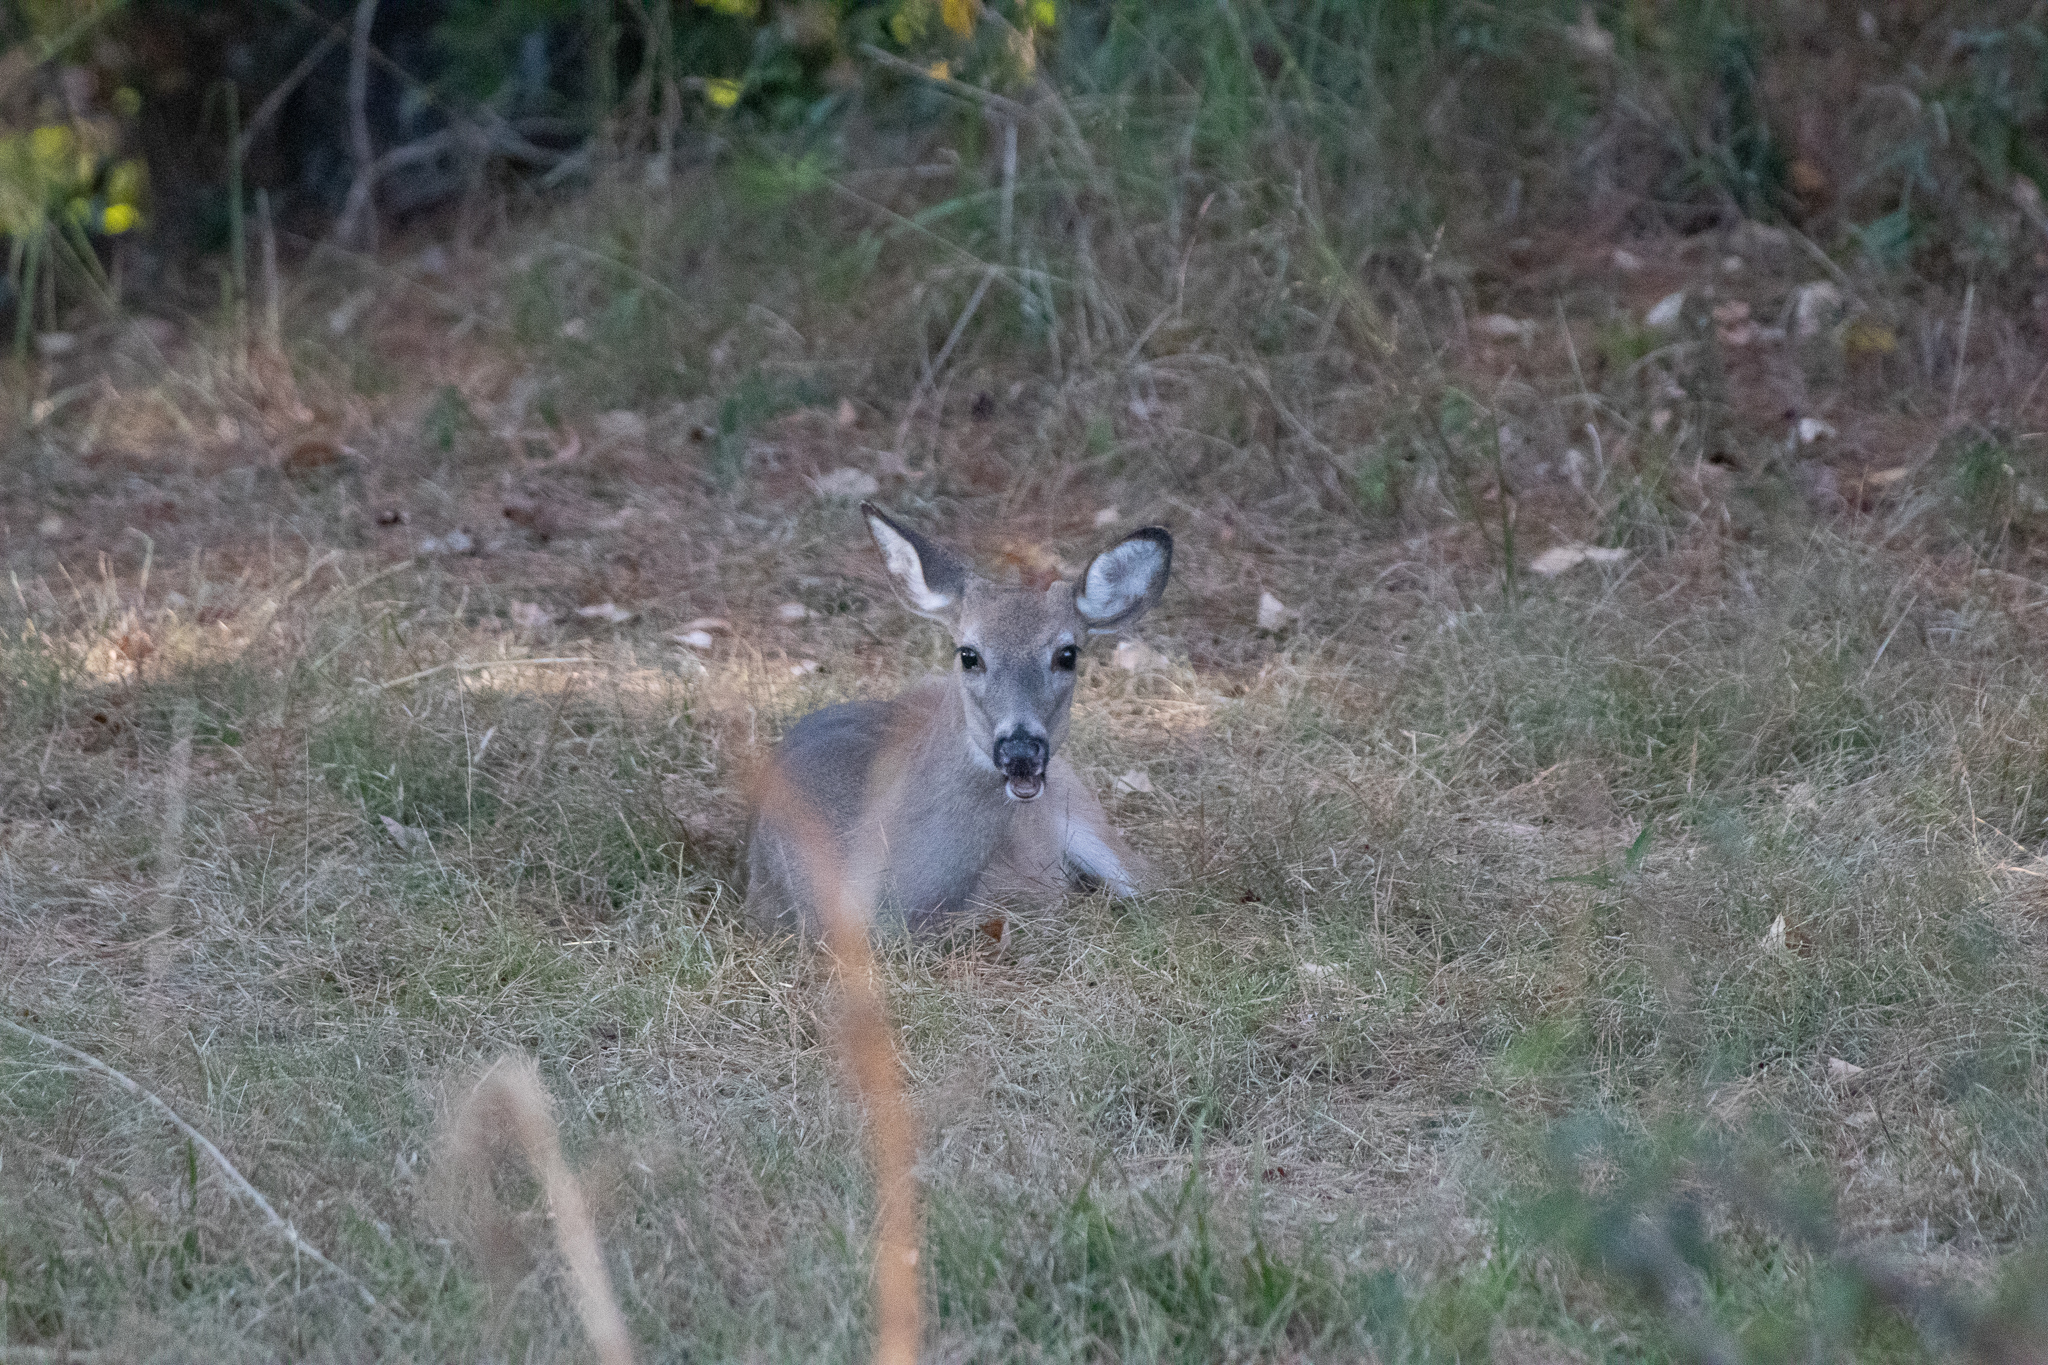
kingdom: Animalia
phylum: Chordata
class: Mammalia
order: Artiodactyla
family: Cervidae
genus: Odocoileus
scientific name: Odocoileus virginianus
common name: White-tailed deer
